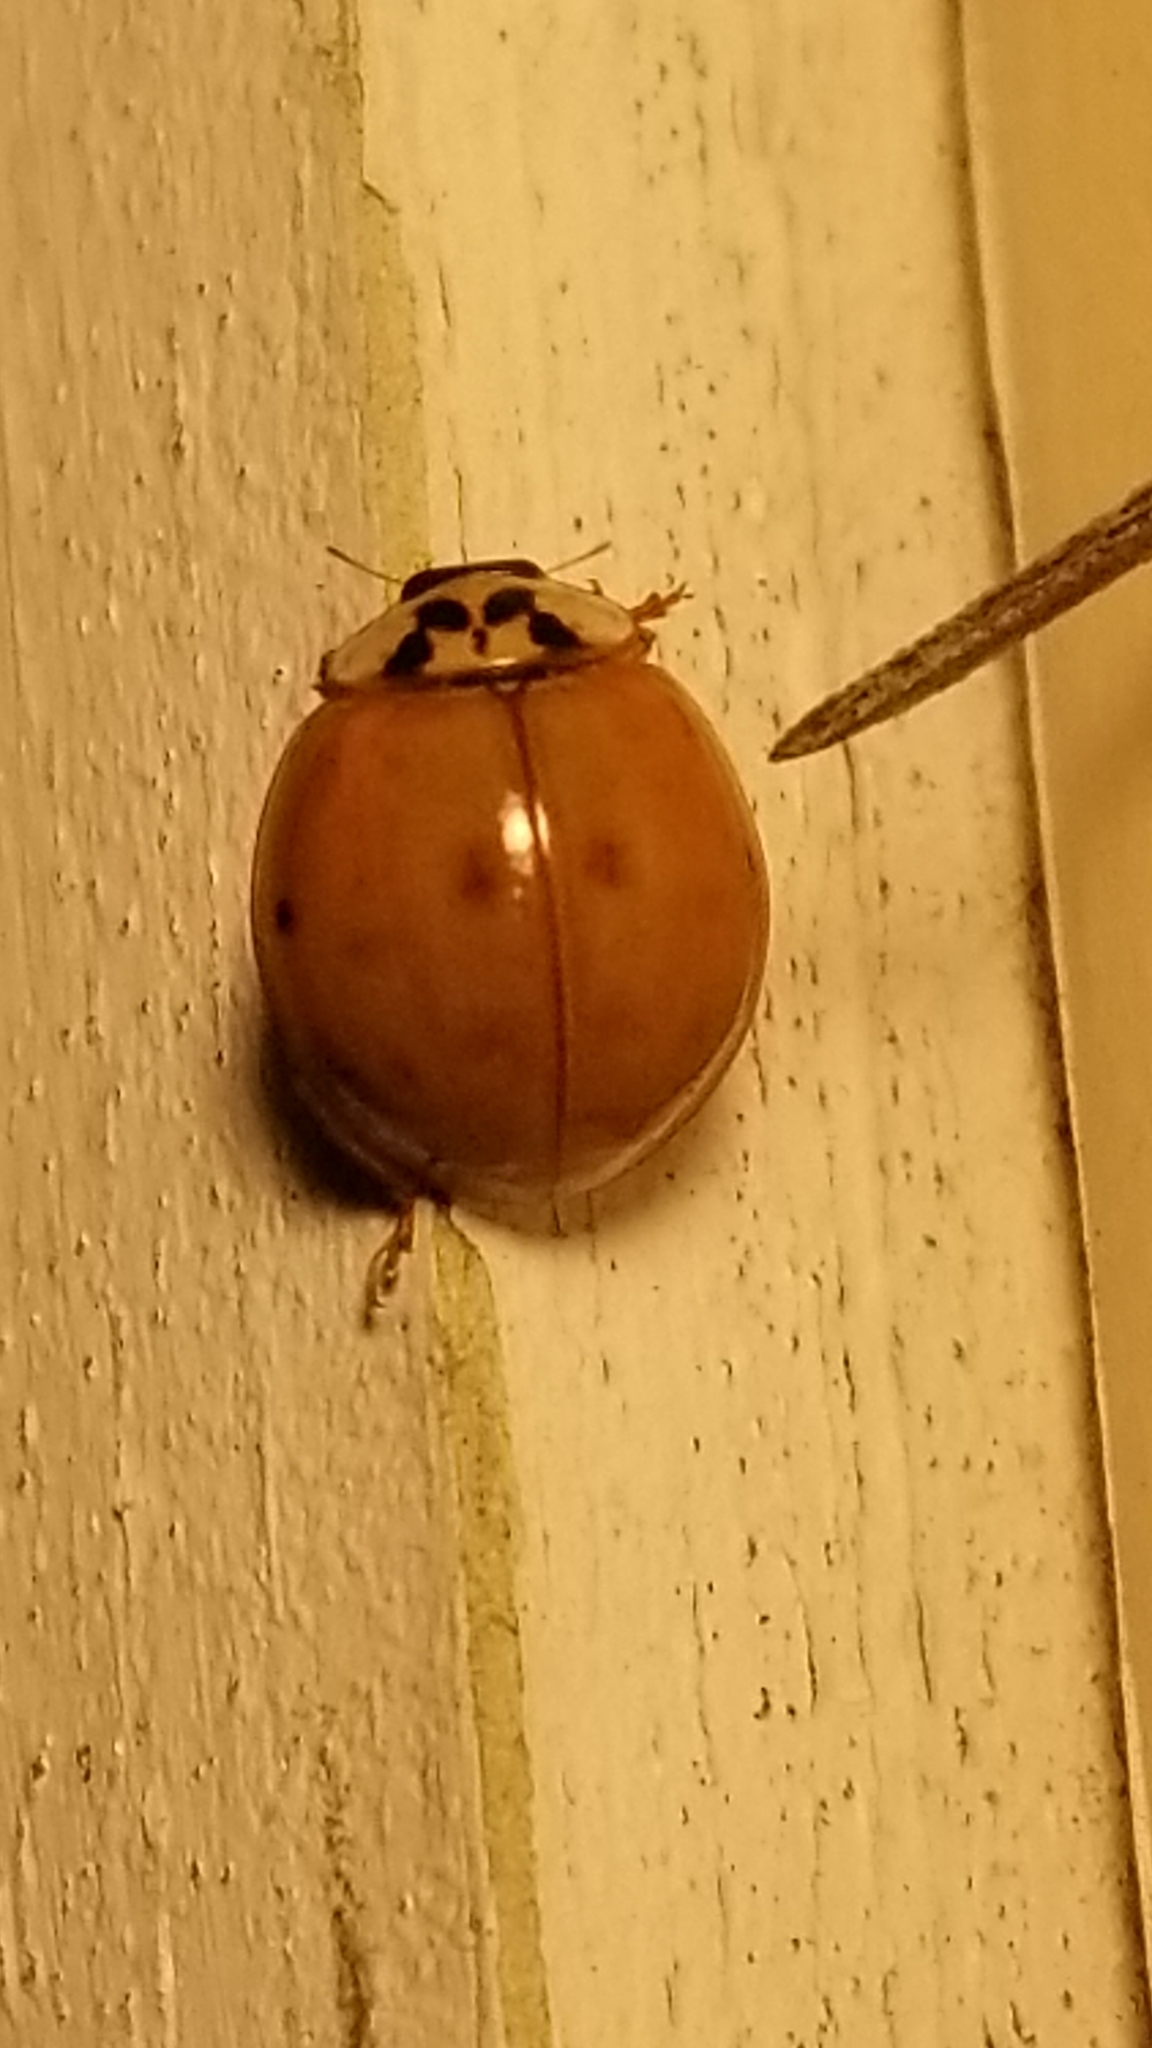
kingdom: Animalia
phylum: Arthropoda
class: Insecta
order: Coleoptera
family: Coccinellidae
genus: Harmonia
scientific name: Harmonia axyridis
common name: Harlequin ladybird
